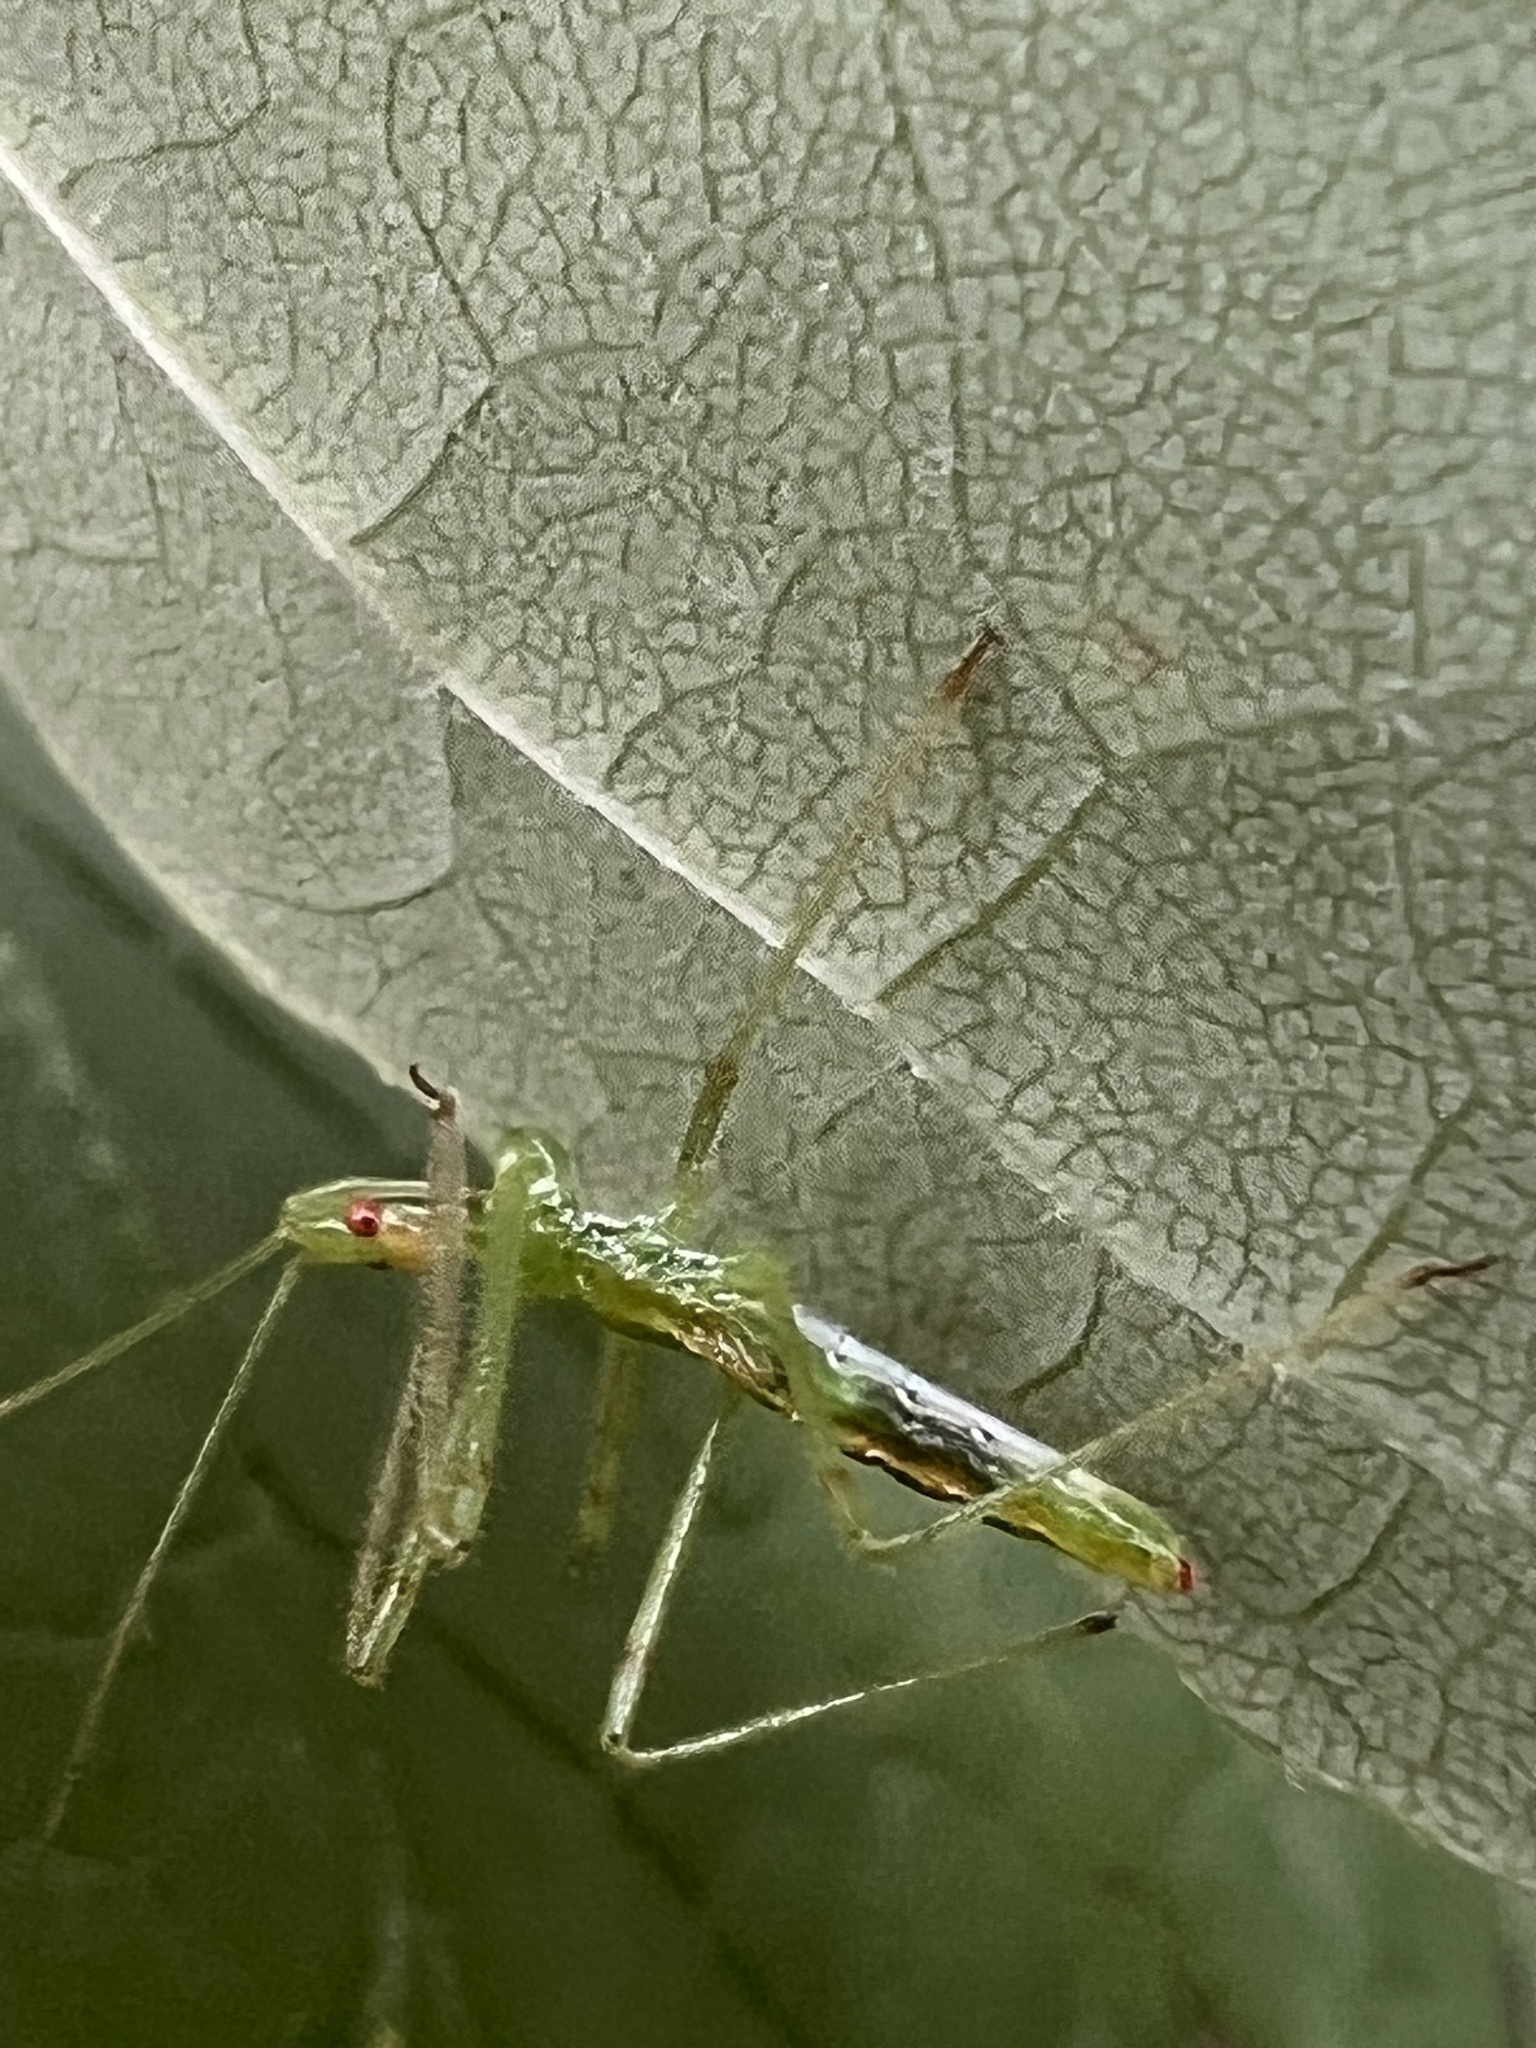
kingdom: Animalia
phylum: Arthropoda
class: Insecta
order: Hemiptera
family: Reduviidae
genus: Zelus
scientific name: Zelus luridus
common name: Pale green assassin bug
